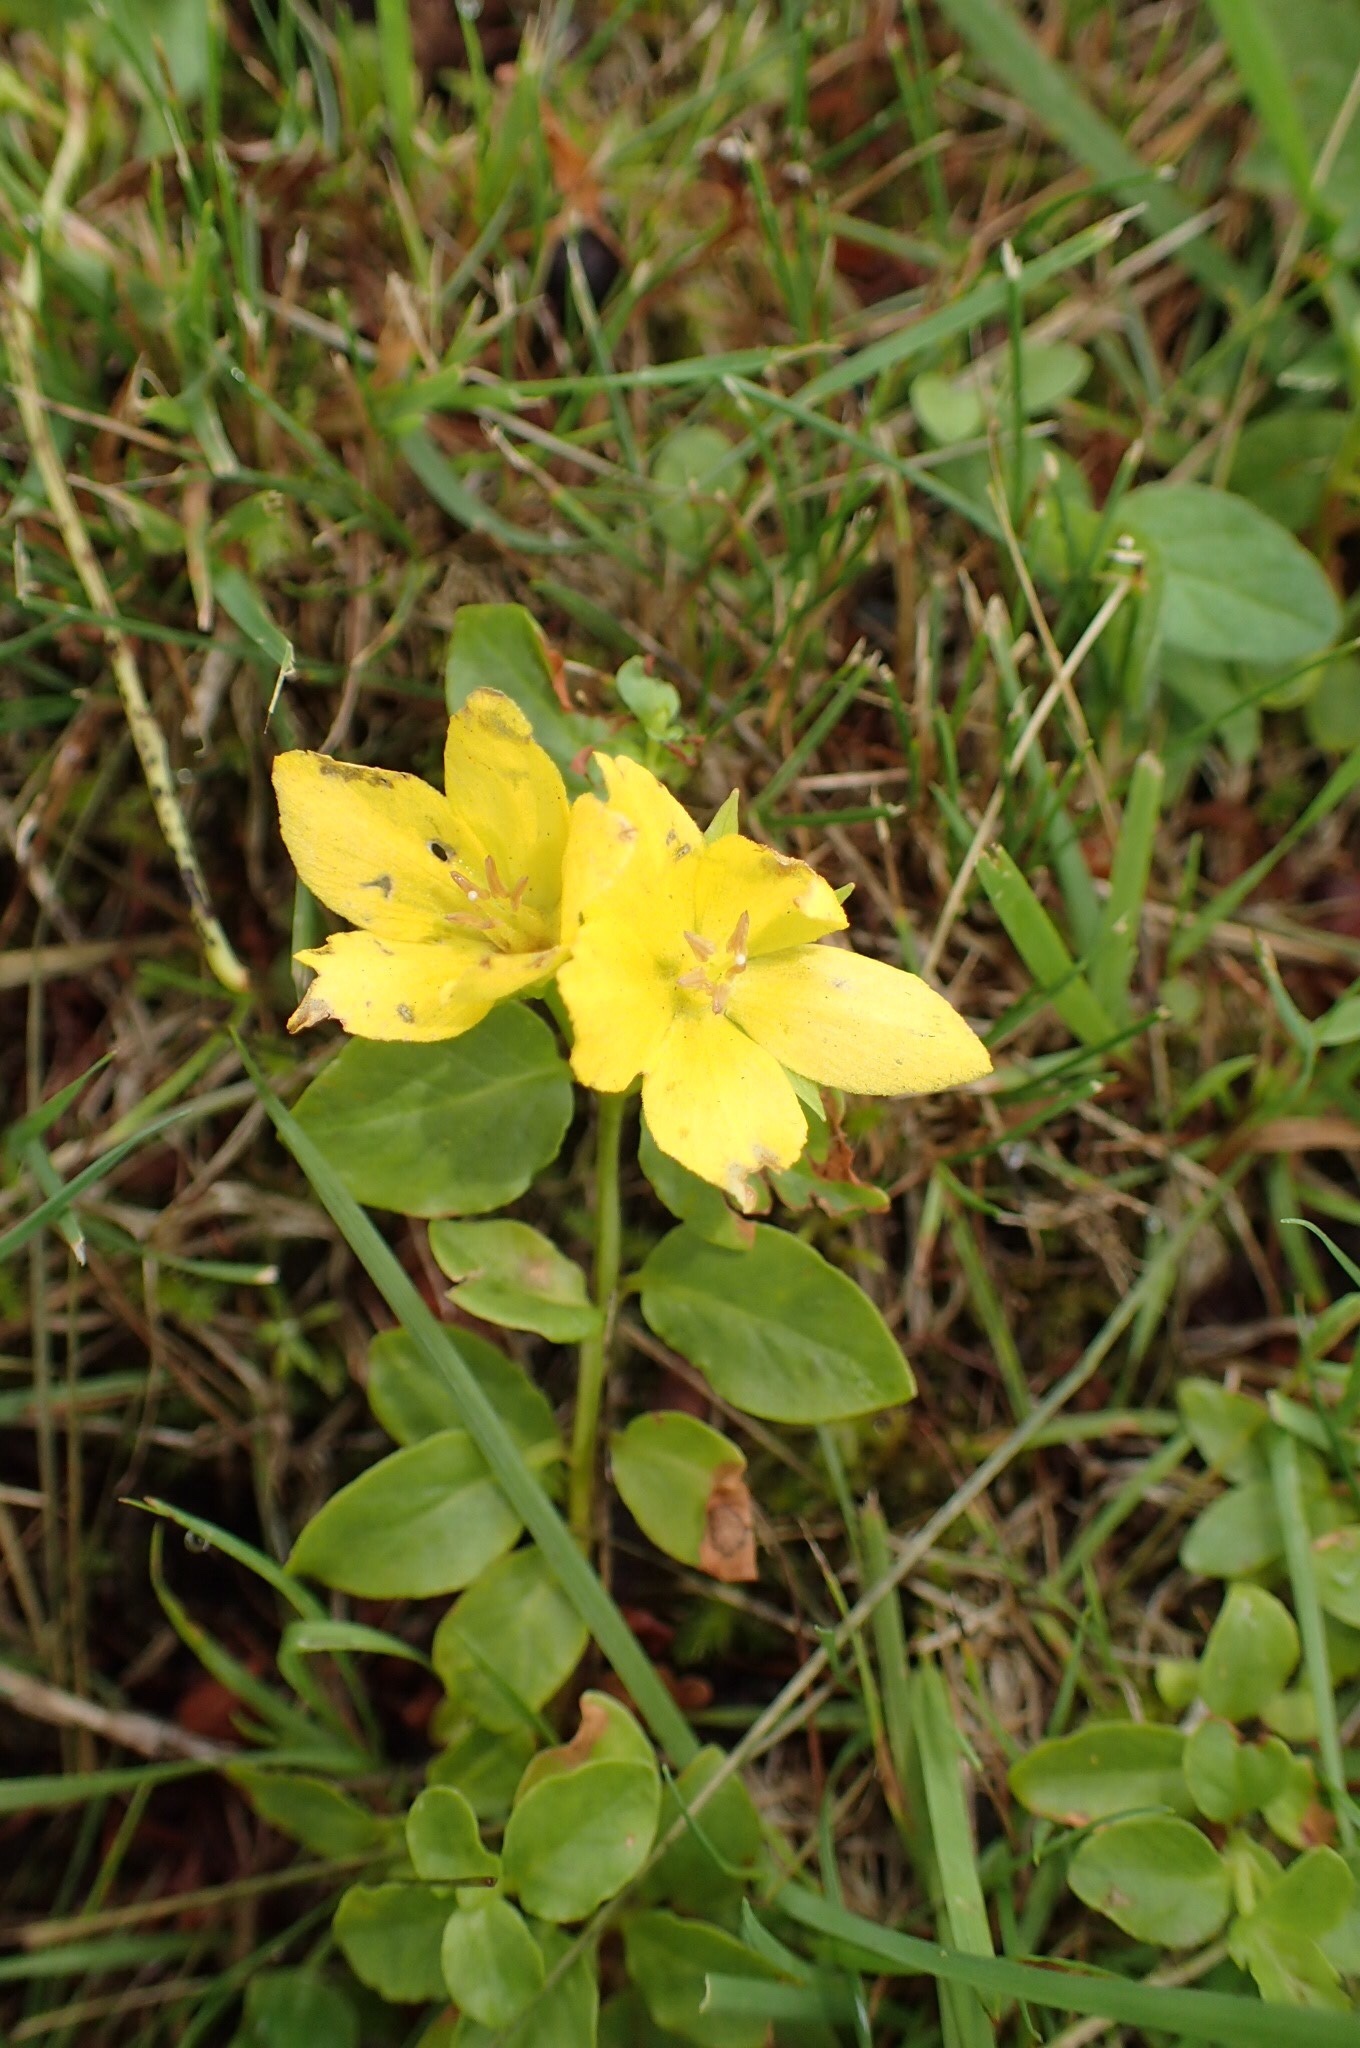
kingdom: Plantae
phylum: Tracheophyta
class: Magnoliopsida
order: Ericales
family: Primulaceae
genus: Lysimachia
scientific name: Lysimachia nummularia
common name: Moneywort
